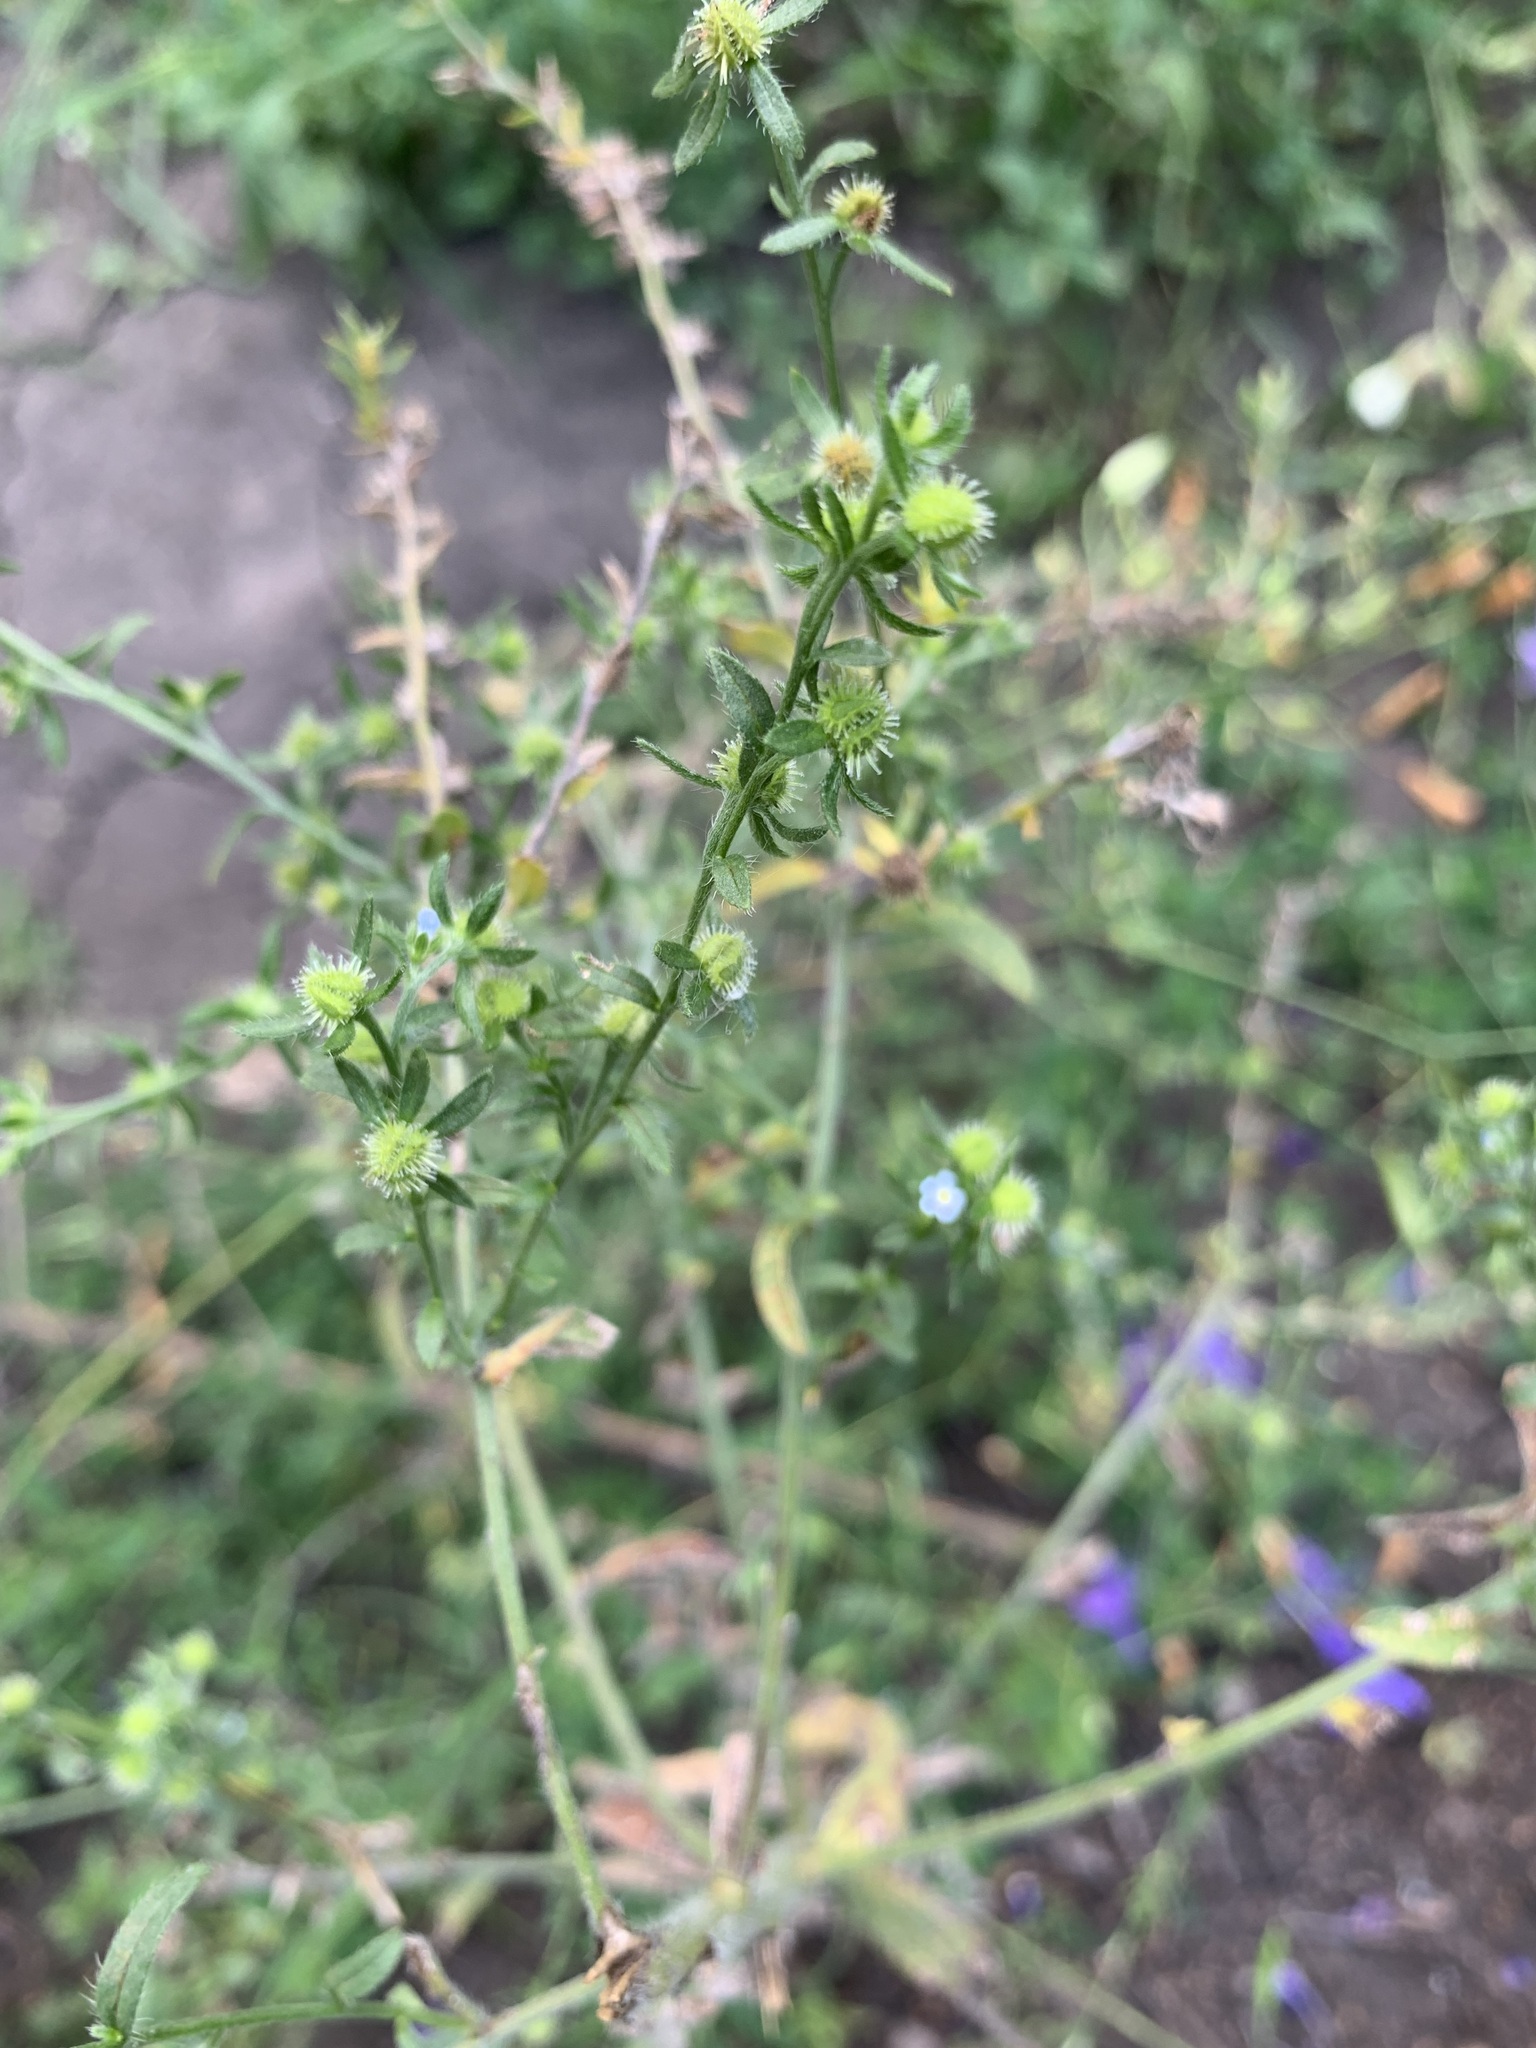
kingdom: Plantae
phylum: Tracheophyta
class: Magnoliopsida
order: Boraginales
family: Boraginaceae
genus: Lappula
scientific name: Lappula squarrosa
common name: European stickseed
